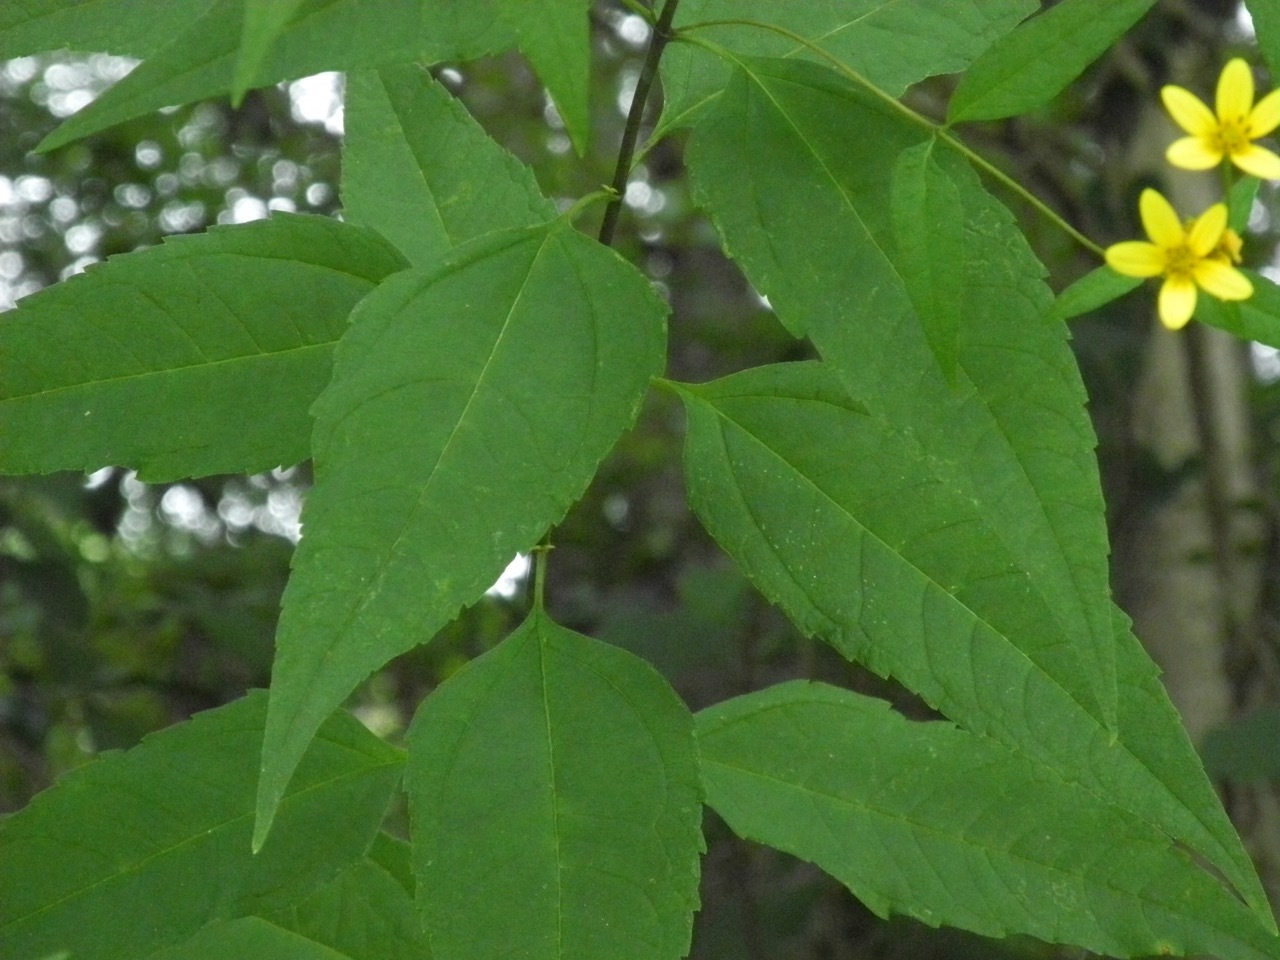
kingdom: Plantae
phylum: Tracheophyta
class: Magnoliopsida
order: Asterales
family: Asteraceae
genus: Helianthus
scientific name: Helianthus tuberosus
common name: Jerusalem artichoke
